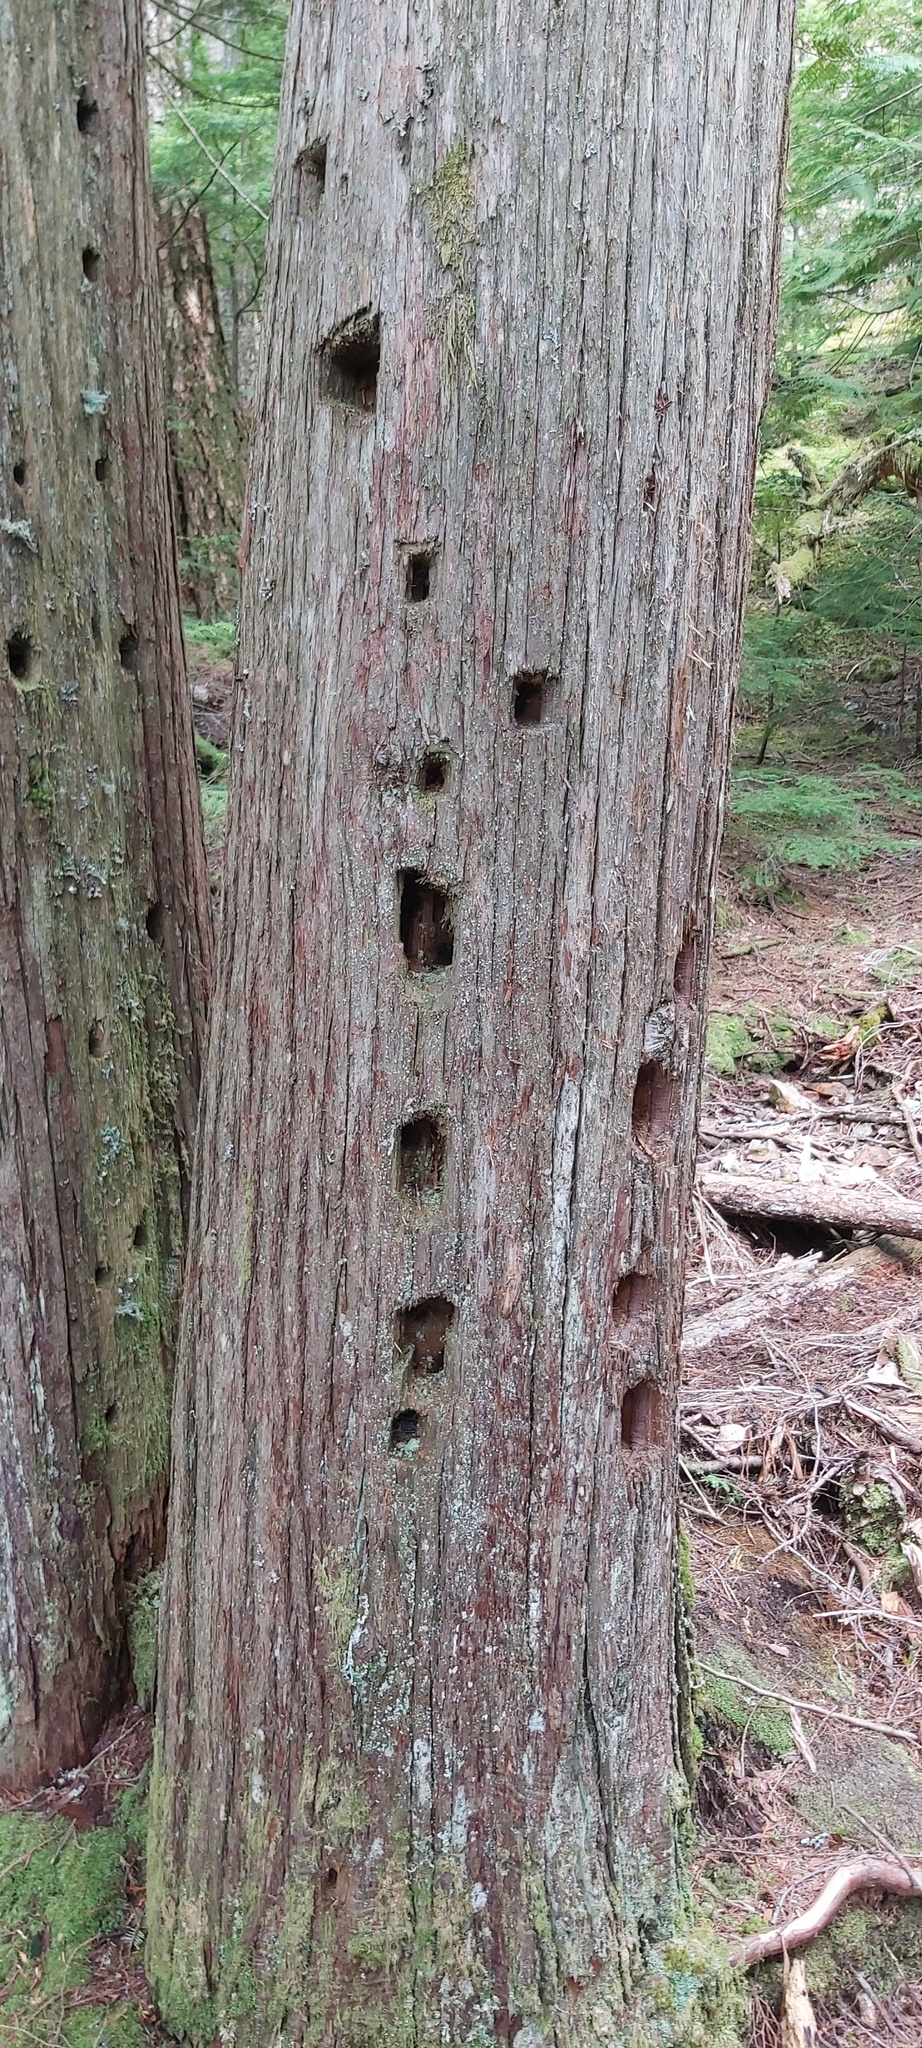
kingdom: Animalia
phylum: Chordata
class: Aves
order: Piciformes
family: Picidae
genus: Dryocopus
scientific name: Dryocopus pileatus
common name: Pileated woodpecker
